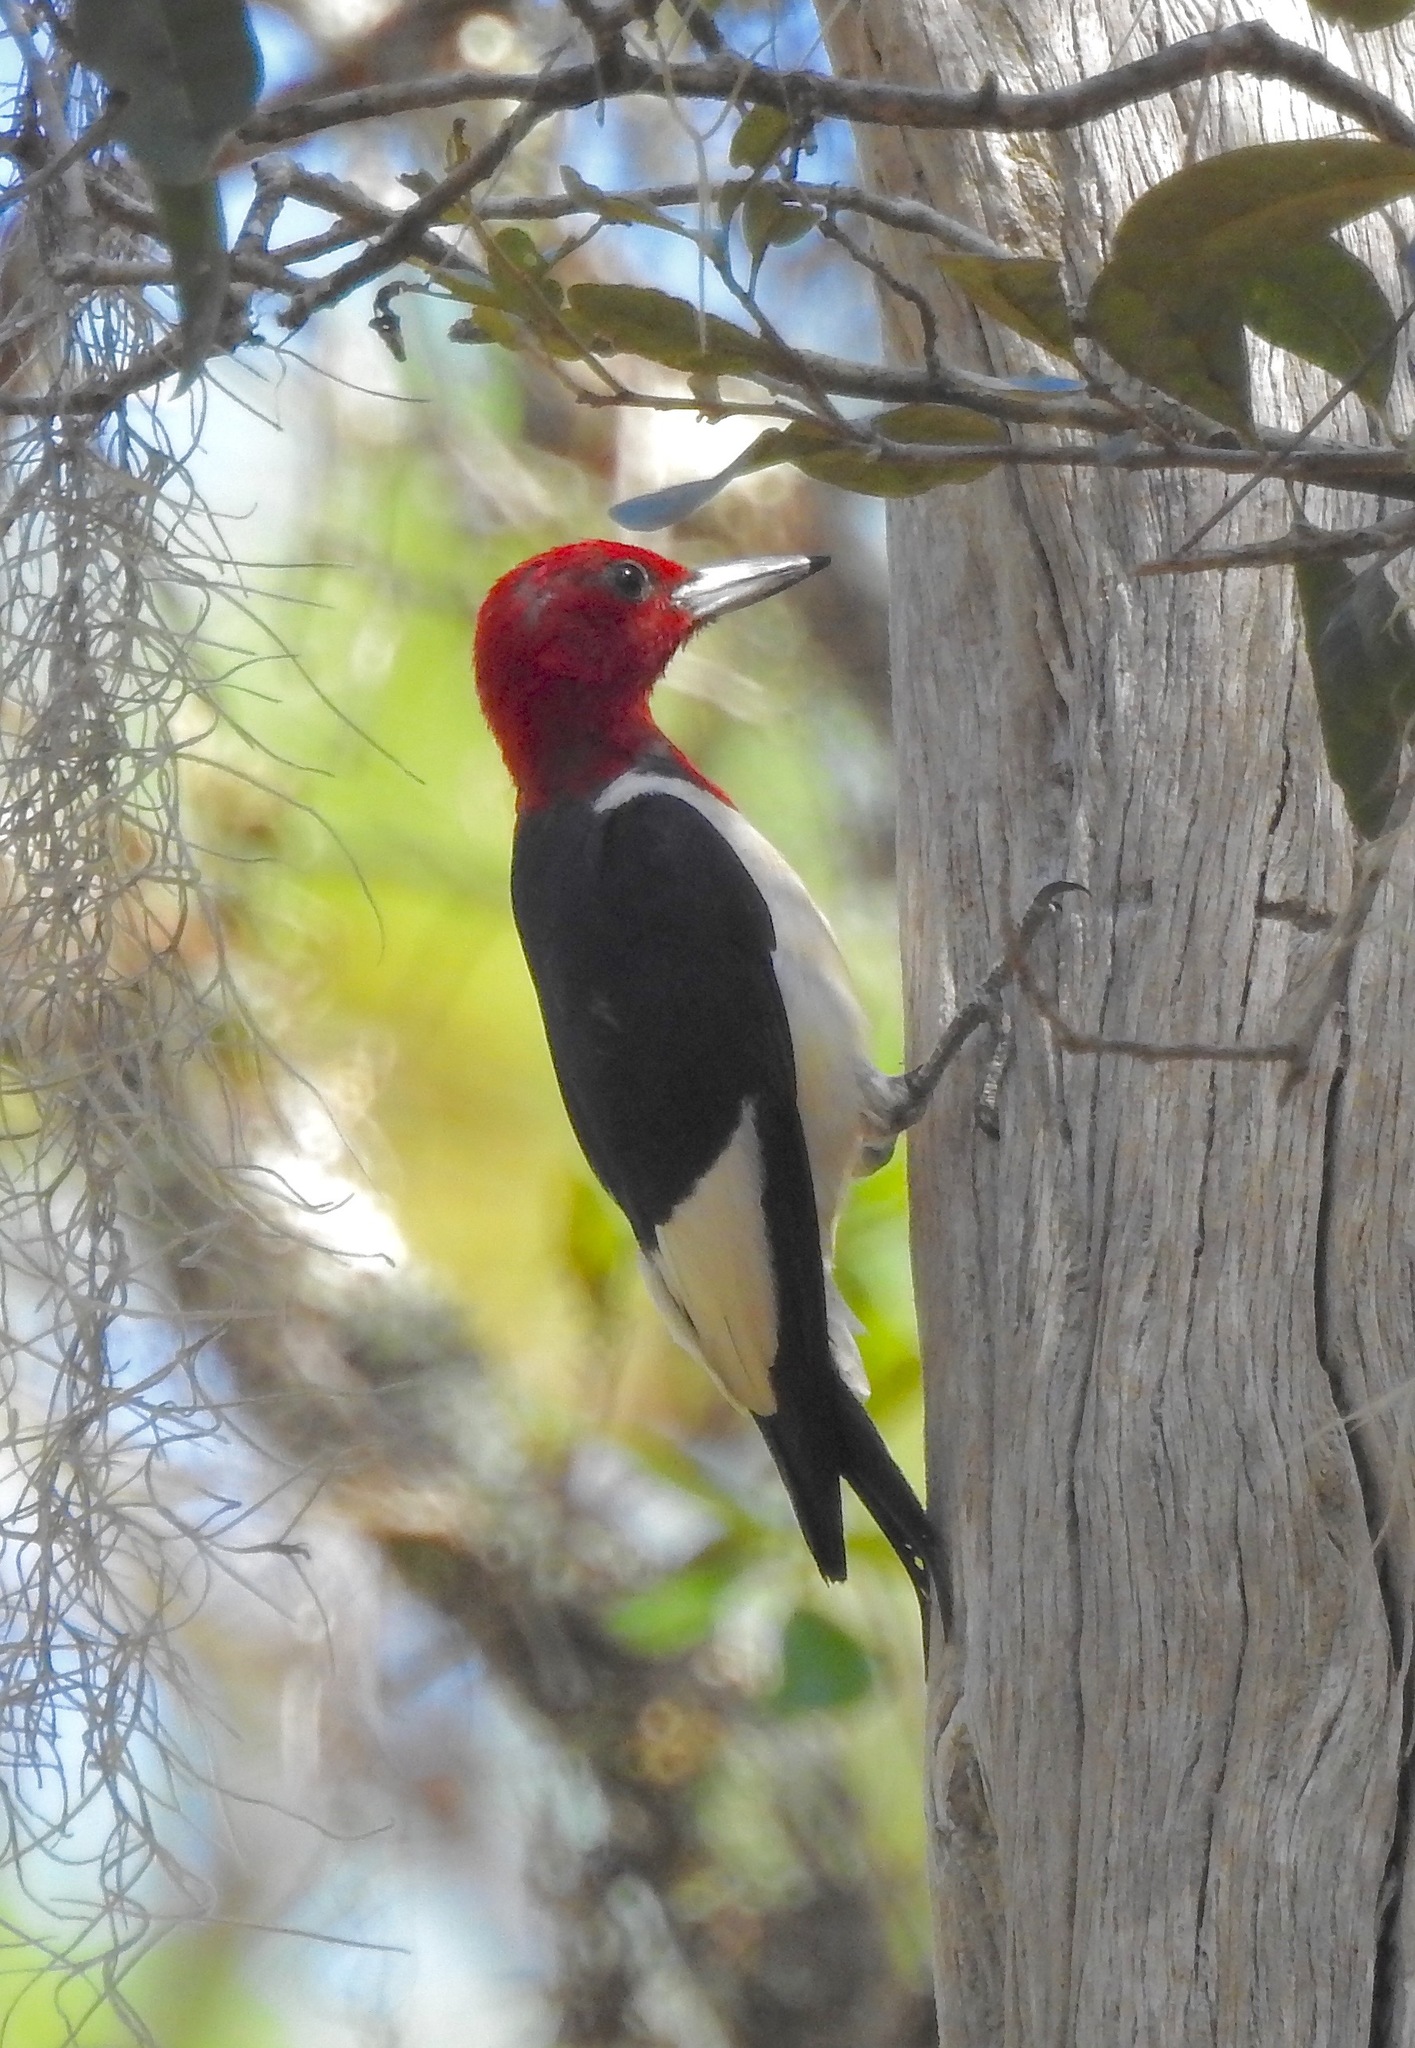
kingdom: Animalia
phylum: Chordata
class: Aves
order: Piciformes
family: Picidae
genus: Melanerpes
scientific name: Melanerpes erythrocephalus
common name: Red-headed woodpecker
